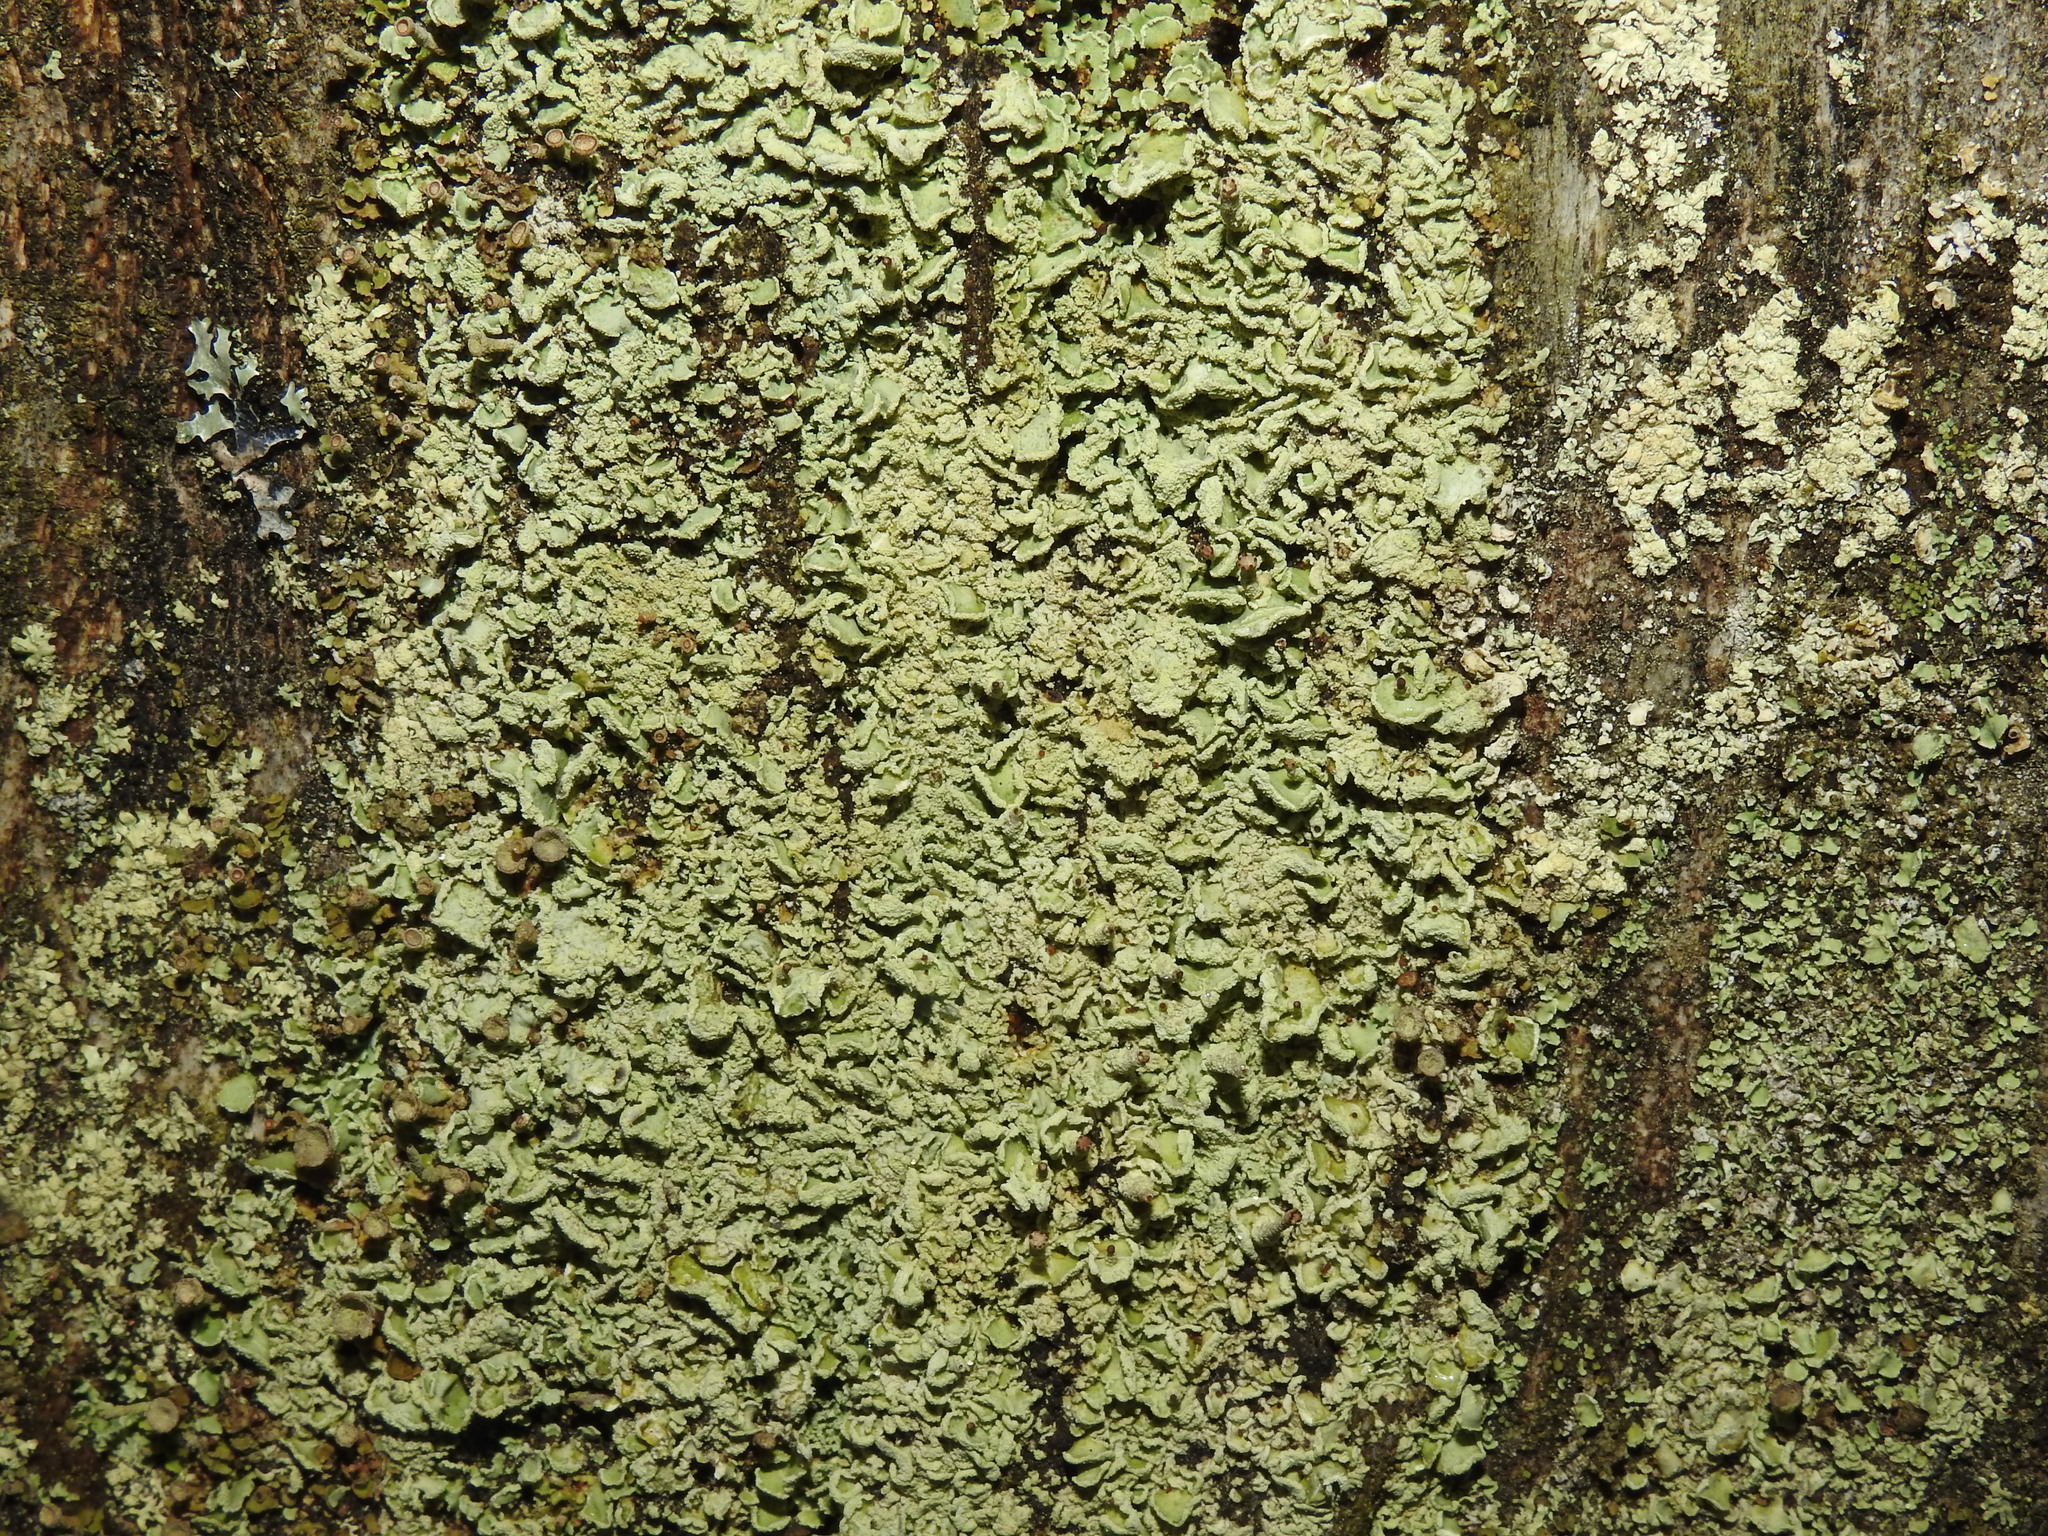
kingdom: Fungi
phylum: Ascomycota
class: Lecanoromycetes
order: Lecanorales
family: Cladoniaceae
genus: Cladonia
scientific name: Cladonia digitata
